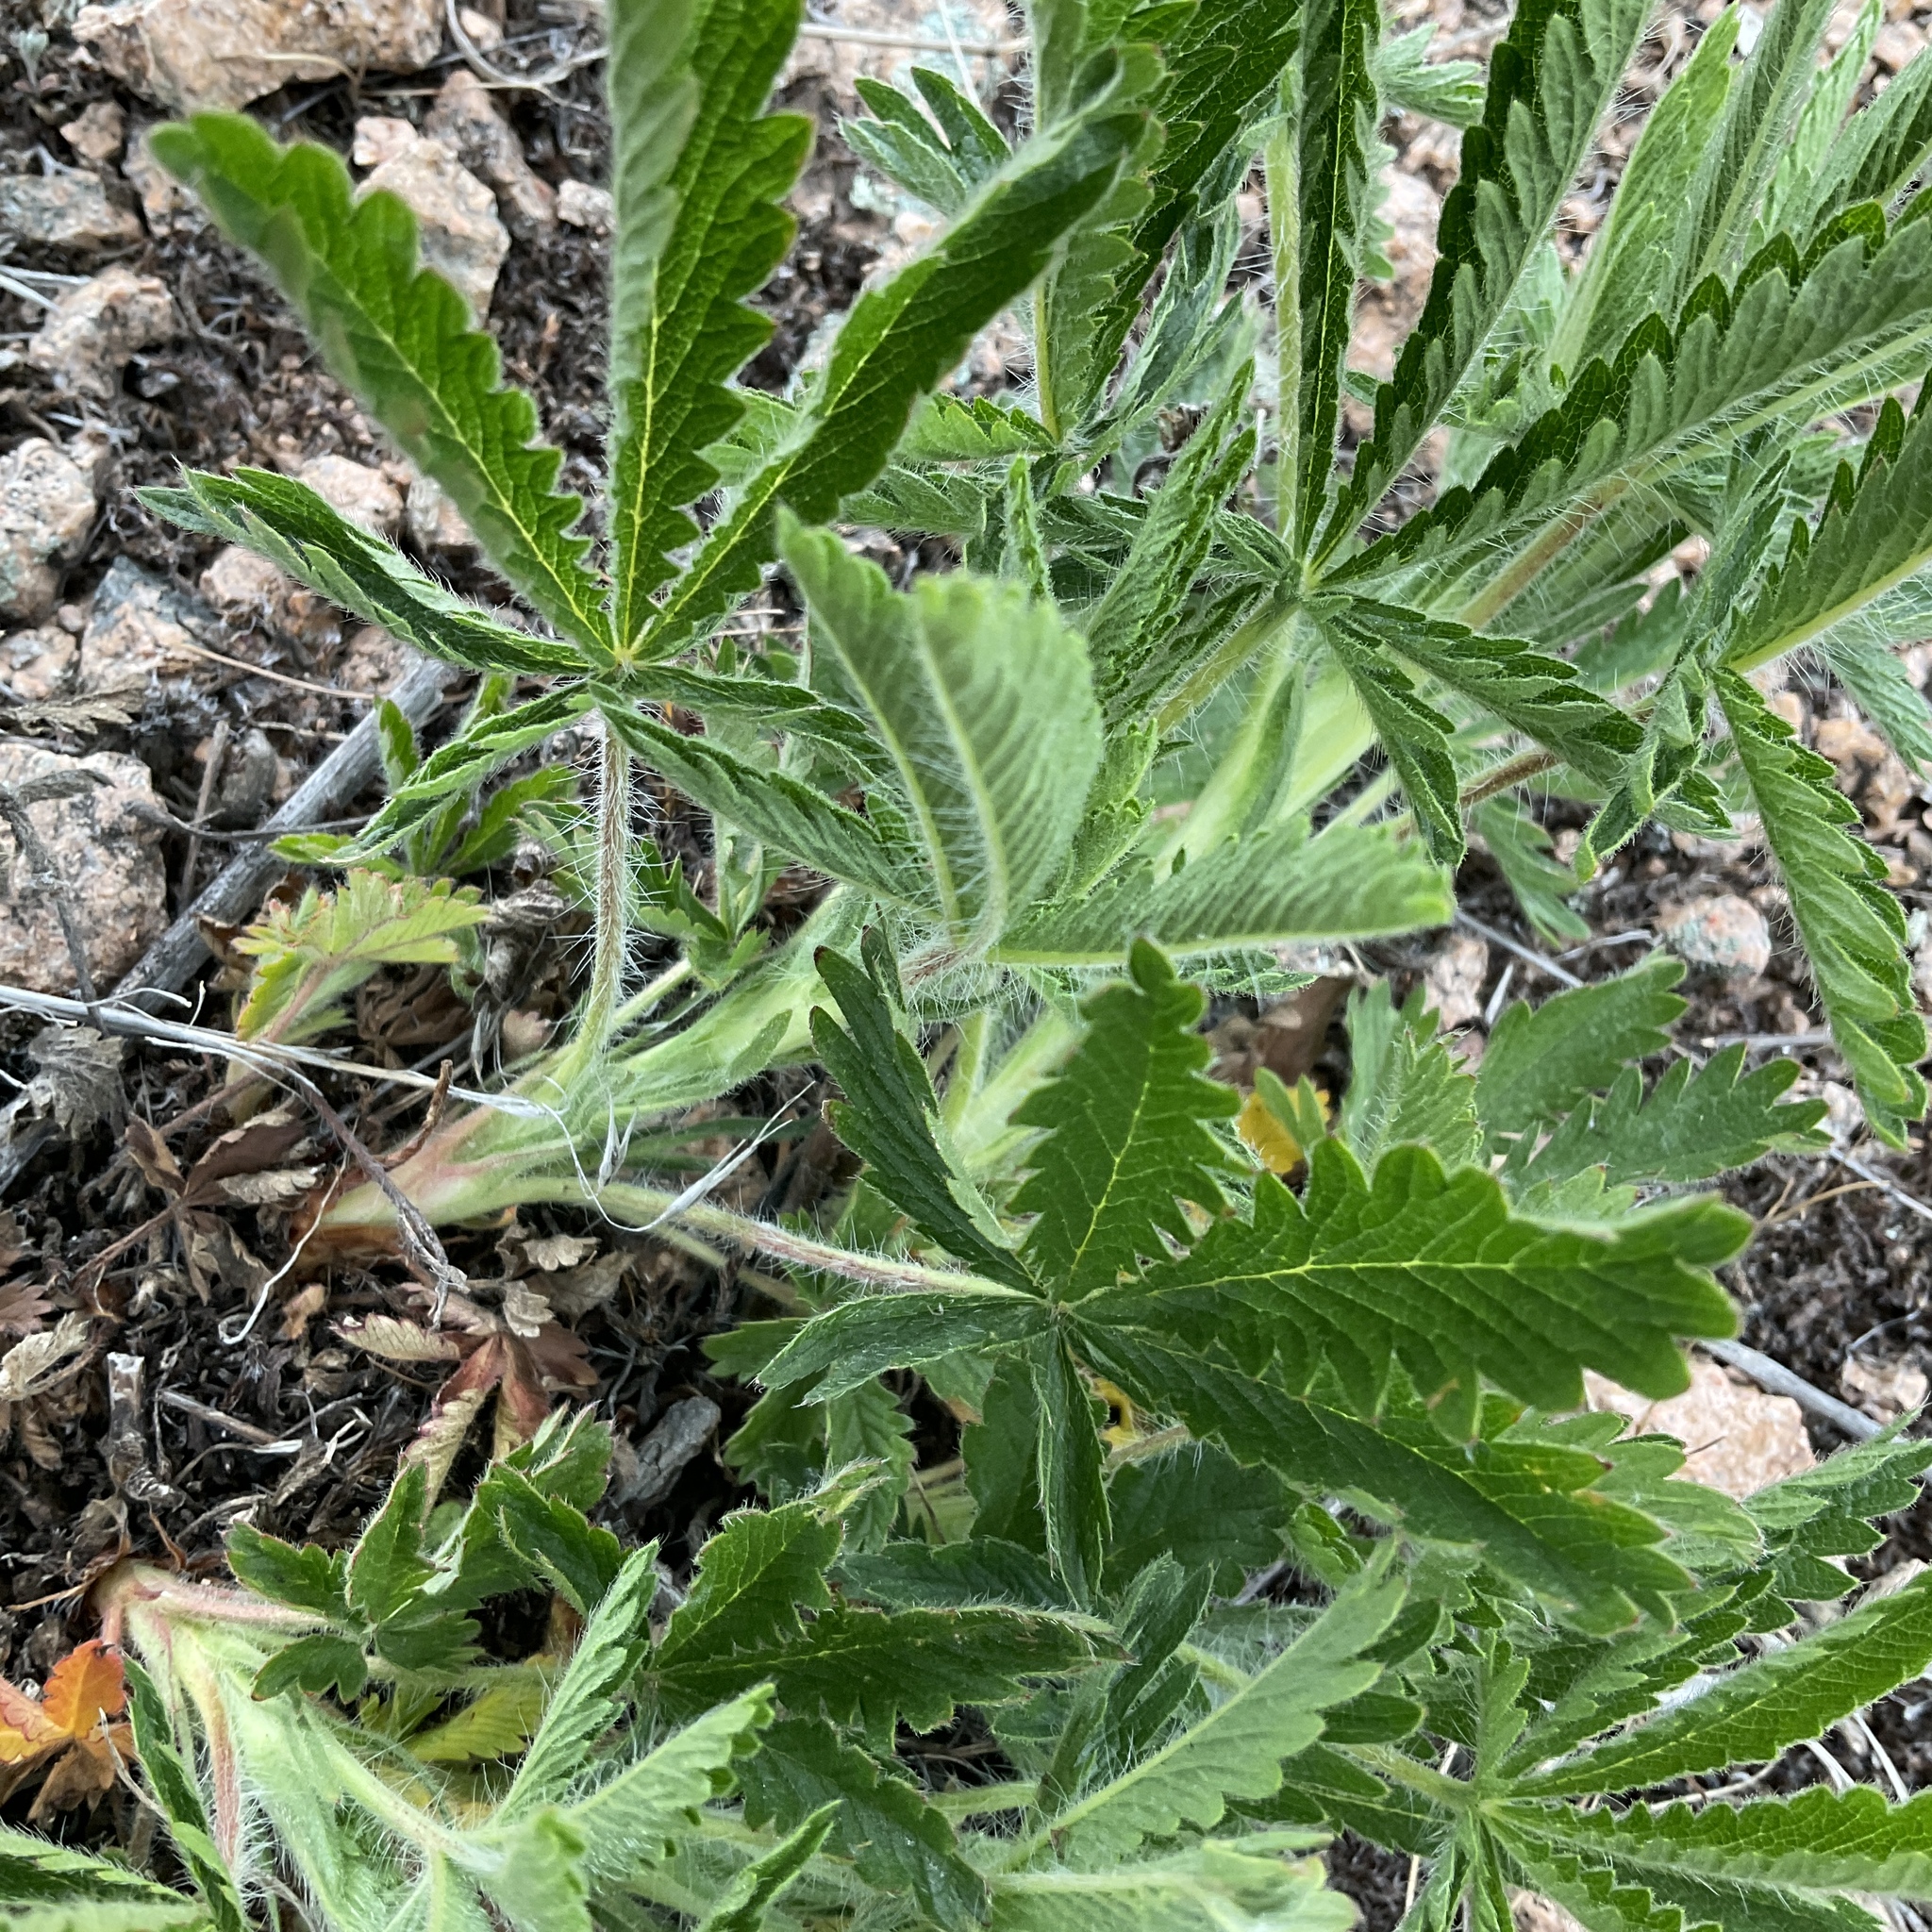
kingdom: Plantae
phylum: Tracheophyta
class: Magnoliopsida
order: Rosales
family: Rosaceae
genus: Potentilla
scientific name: Potentilla recta
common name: Sulphur cinquefoil
